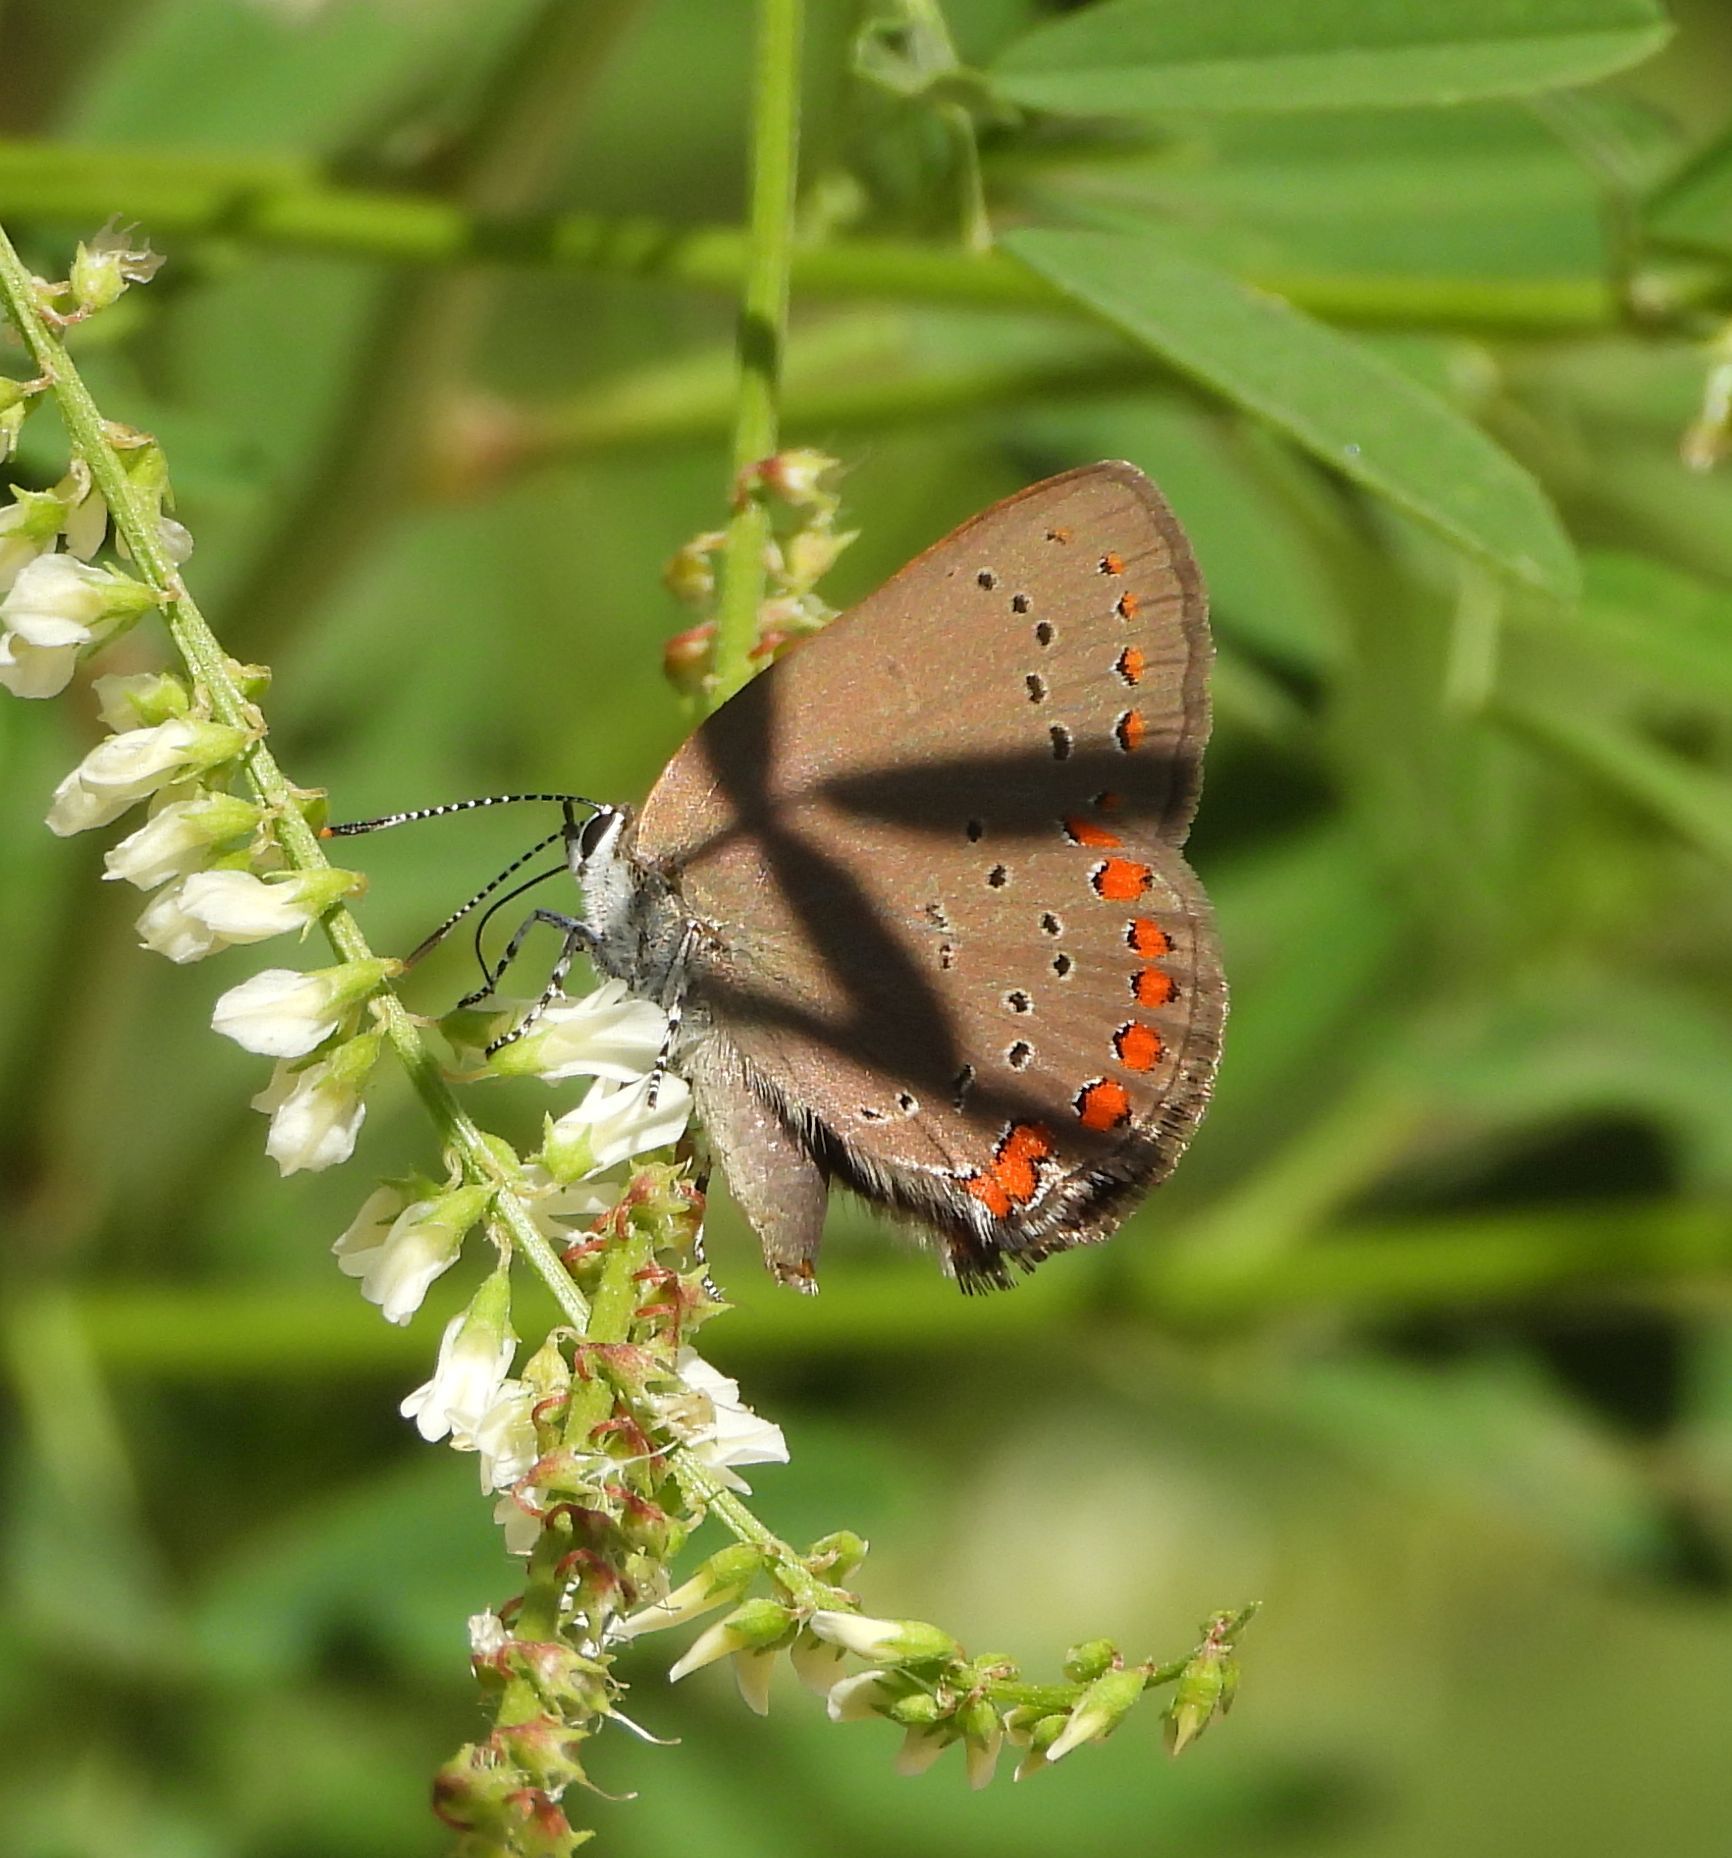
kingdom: Animalia
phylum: Arthropoda
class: Insecta
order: Lepidoptera
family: Lycaenidae
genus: Harkenclenus
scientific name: Harkenclenus titus
